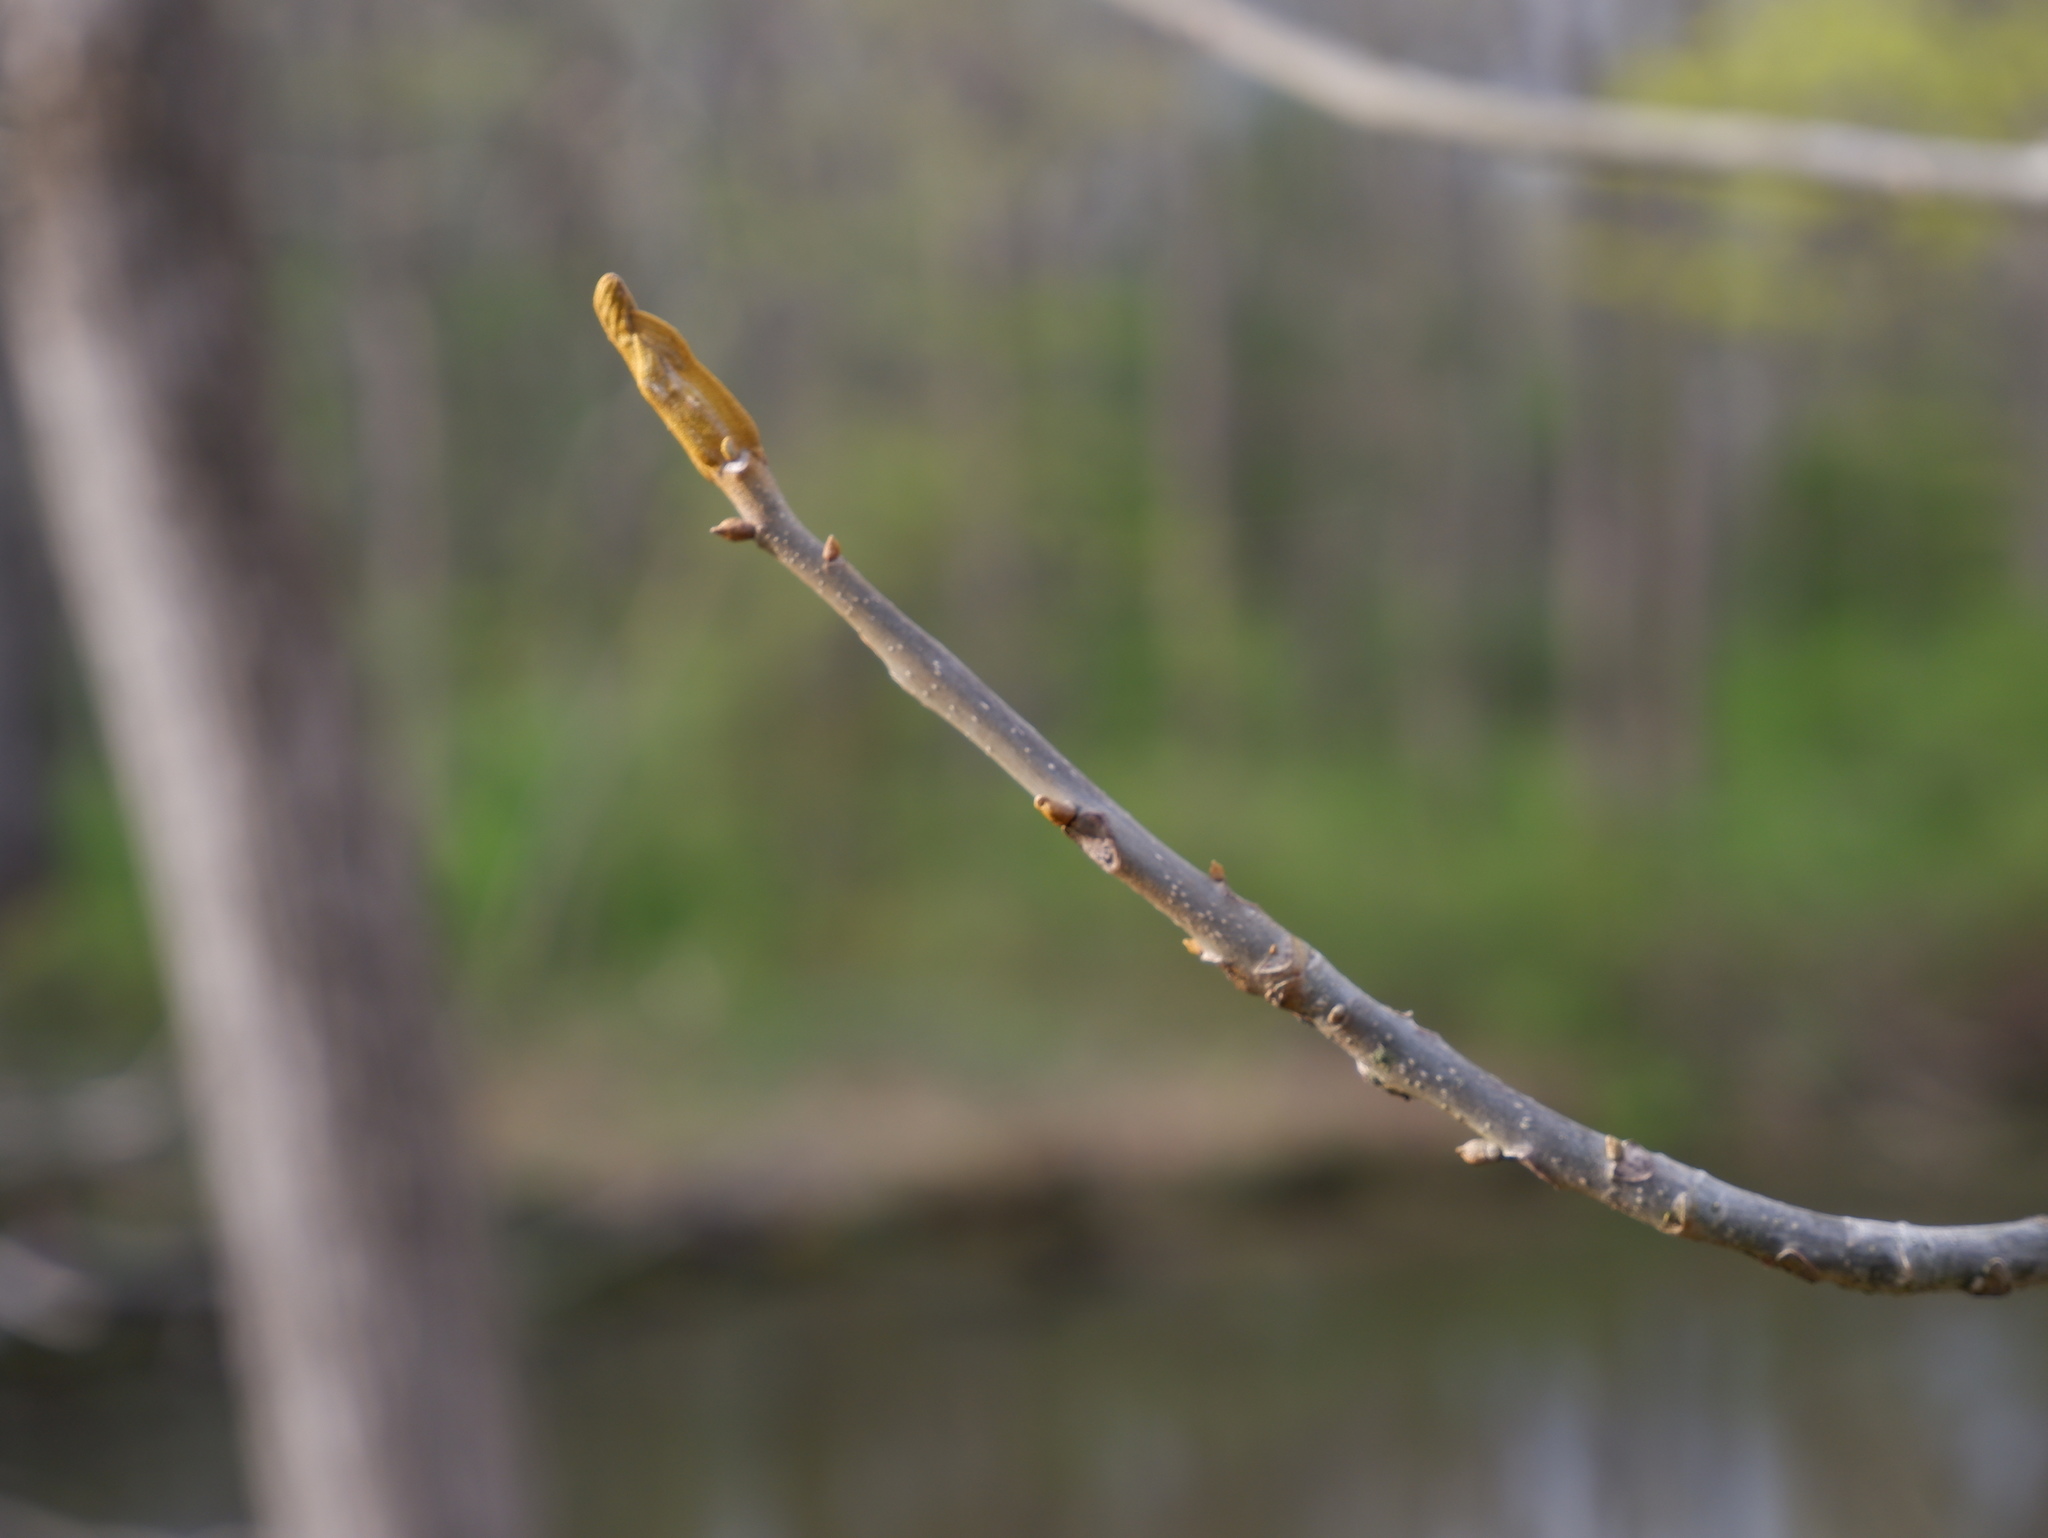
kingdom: Plantae
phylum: Tracheophyta
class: Magnoliopsida
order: Fagales
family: Juglandaceae
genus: Carya
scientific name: Carya cordiformis
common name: Bitternut hickory
